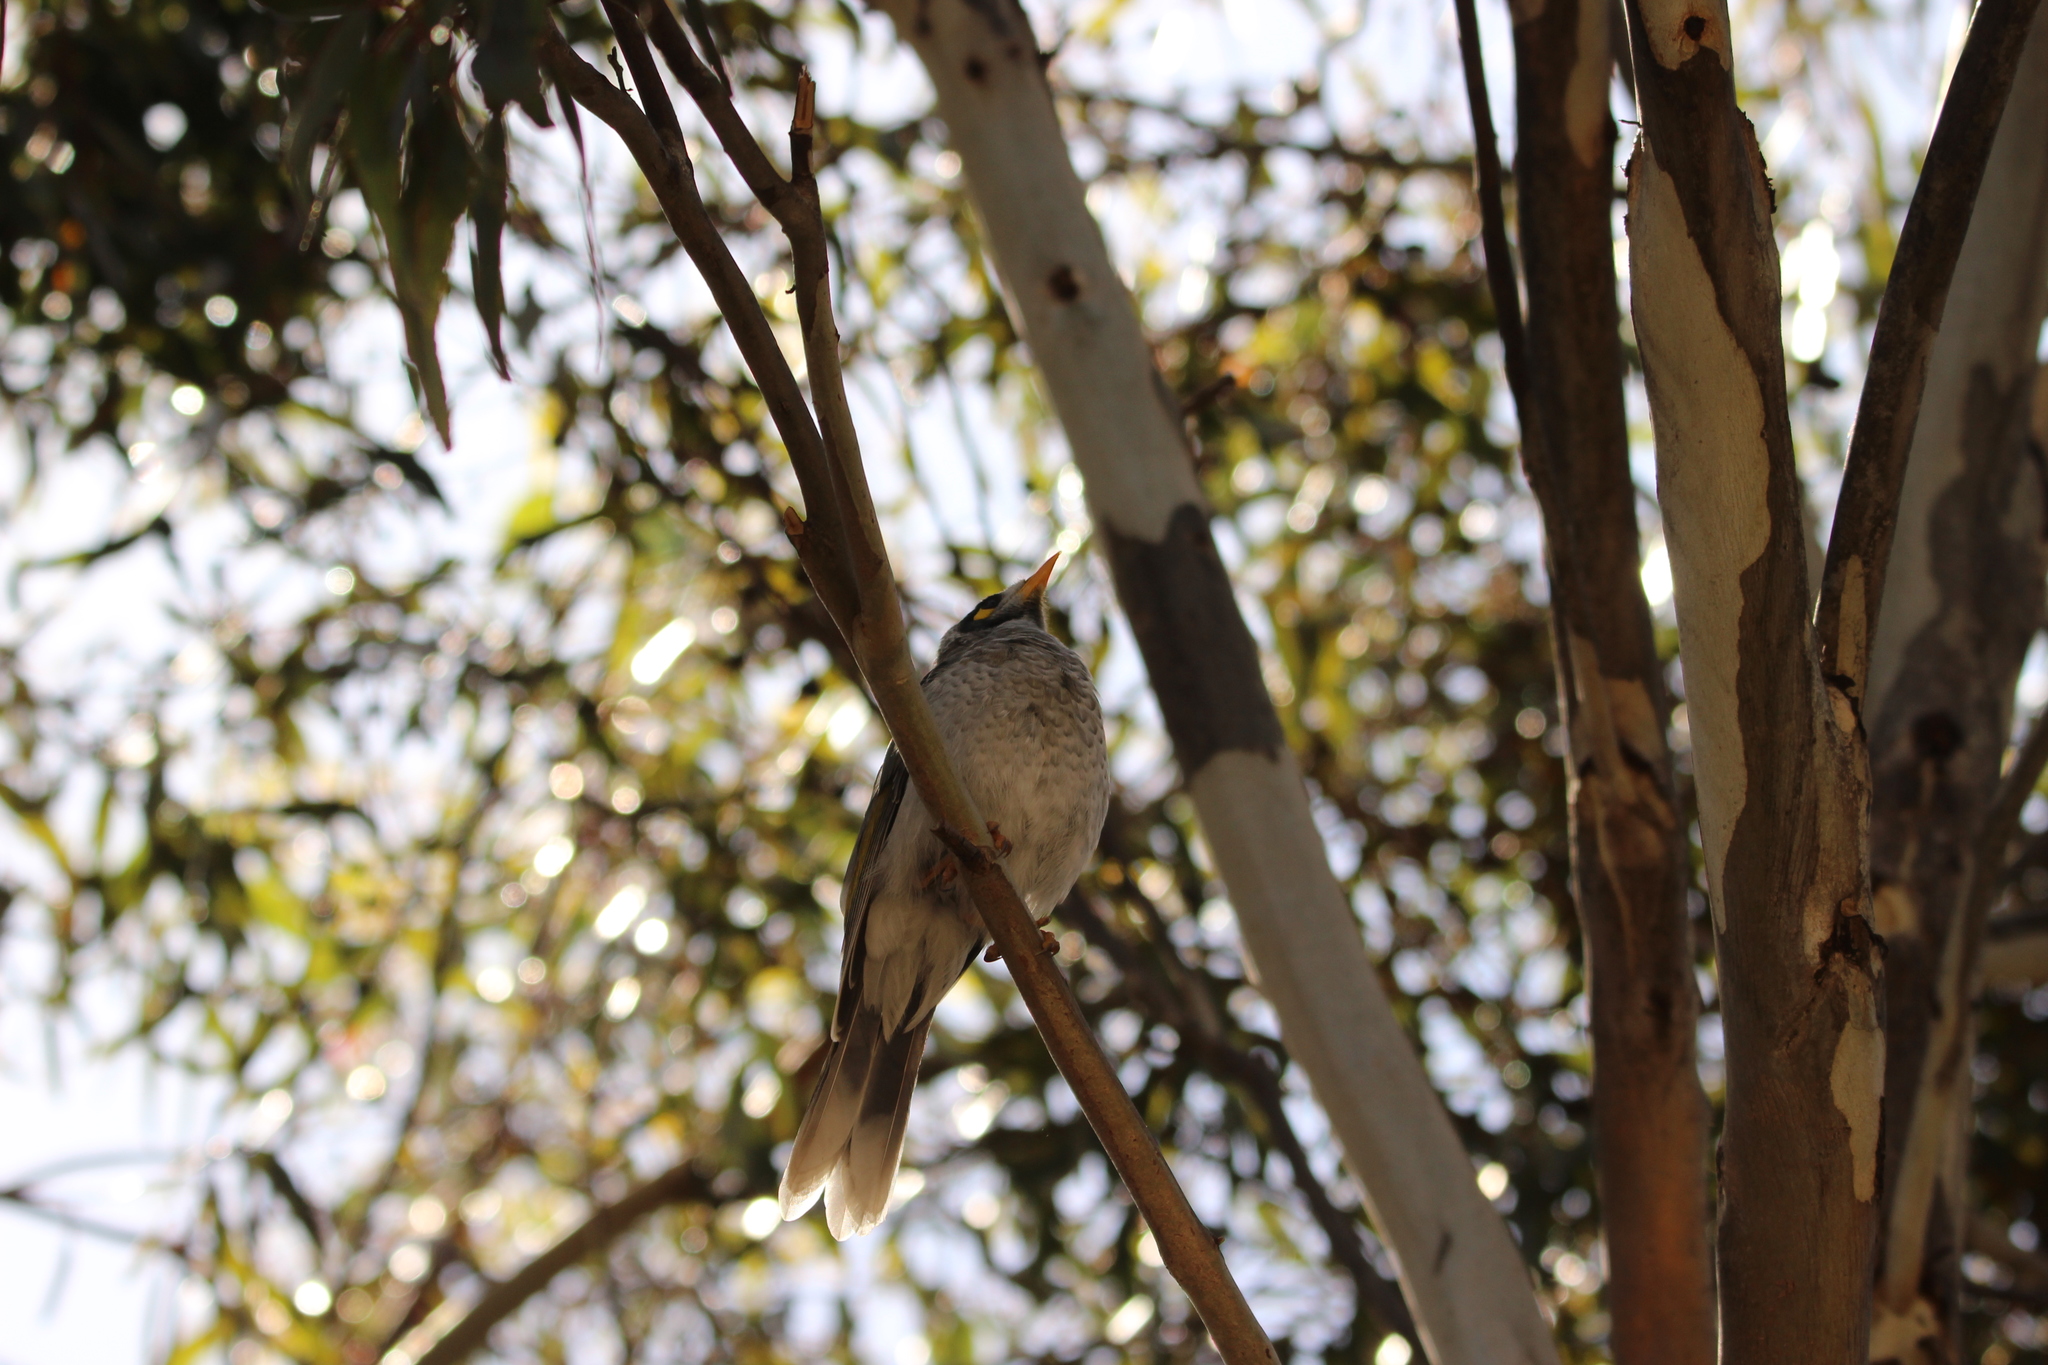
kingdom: Animalia
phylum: Chordata
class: Aves
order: Passeriformes
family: Meliphagidae
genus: Manorina
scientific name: Manorina melanocephala
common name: Noisy miner
